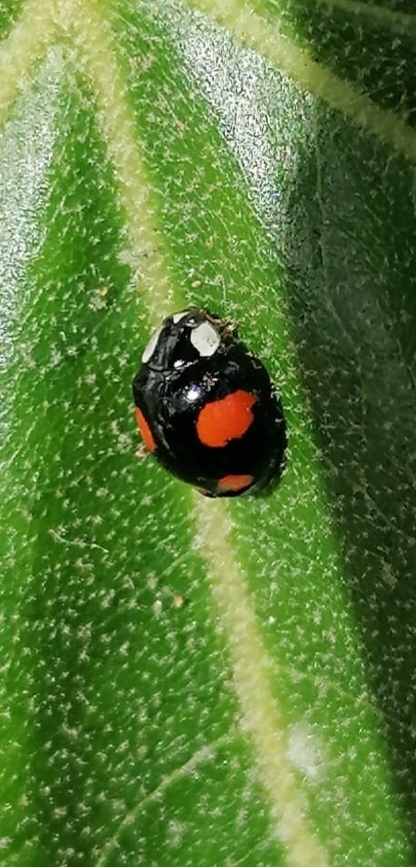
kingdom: Animalia
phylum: Arthropoda
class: Insecta
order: Coleoptera
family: Coccinellidae
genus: Harmonia
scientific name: Harmonia axyridis
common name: Harlequin ladybird
